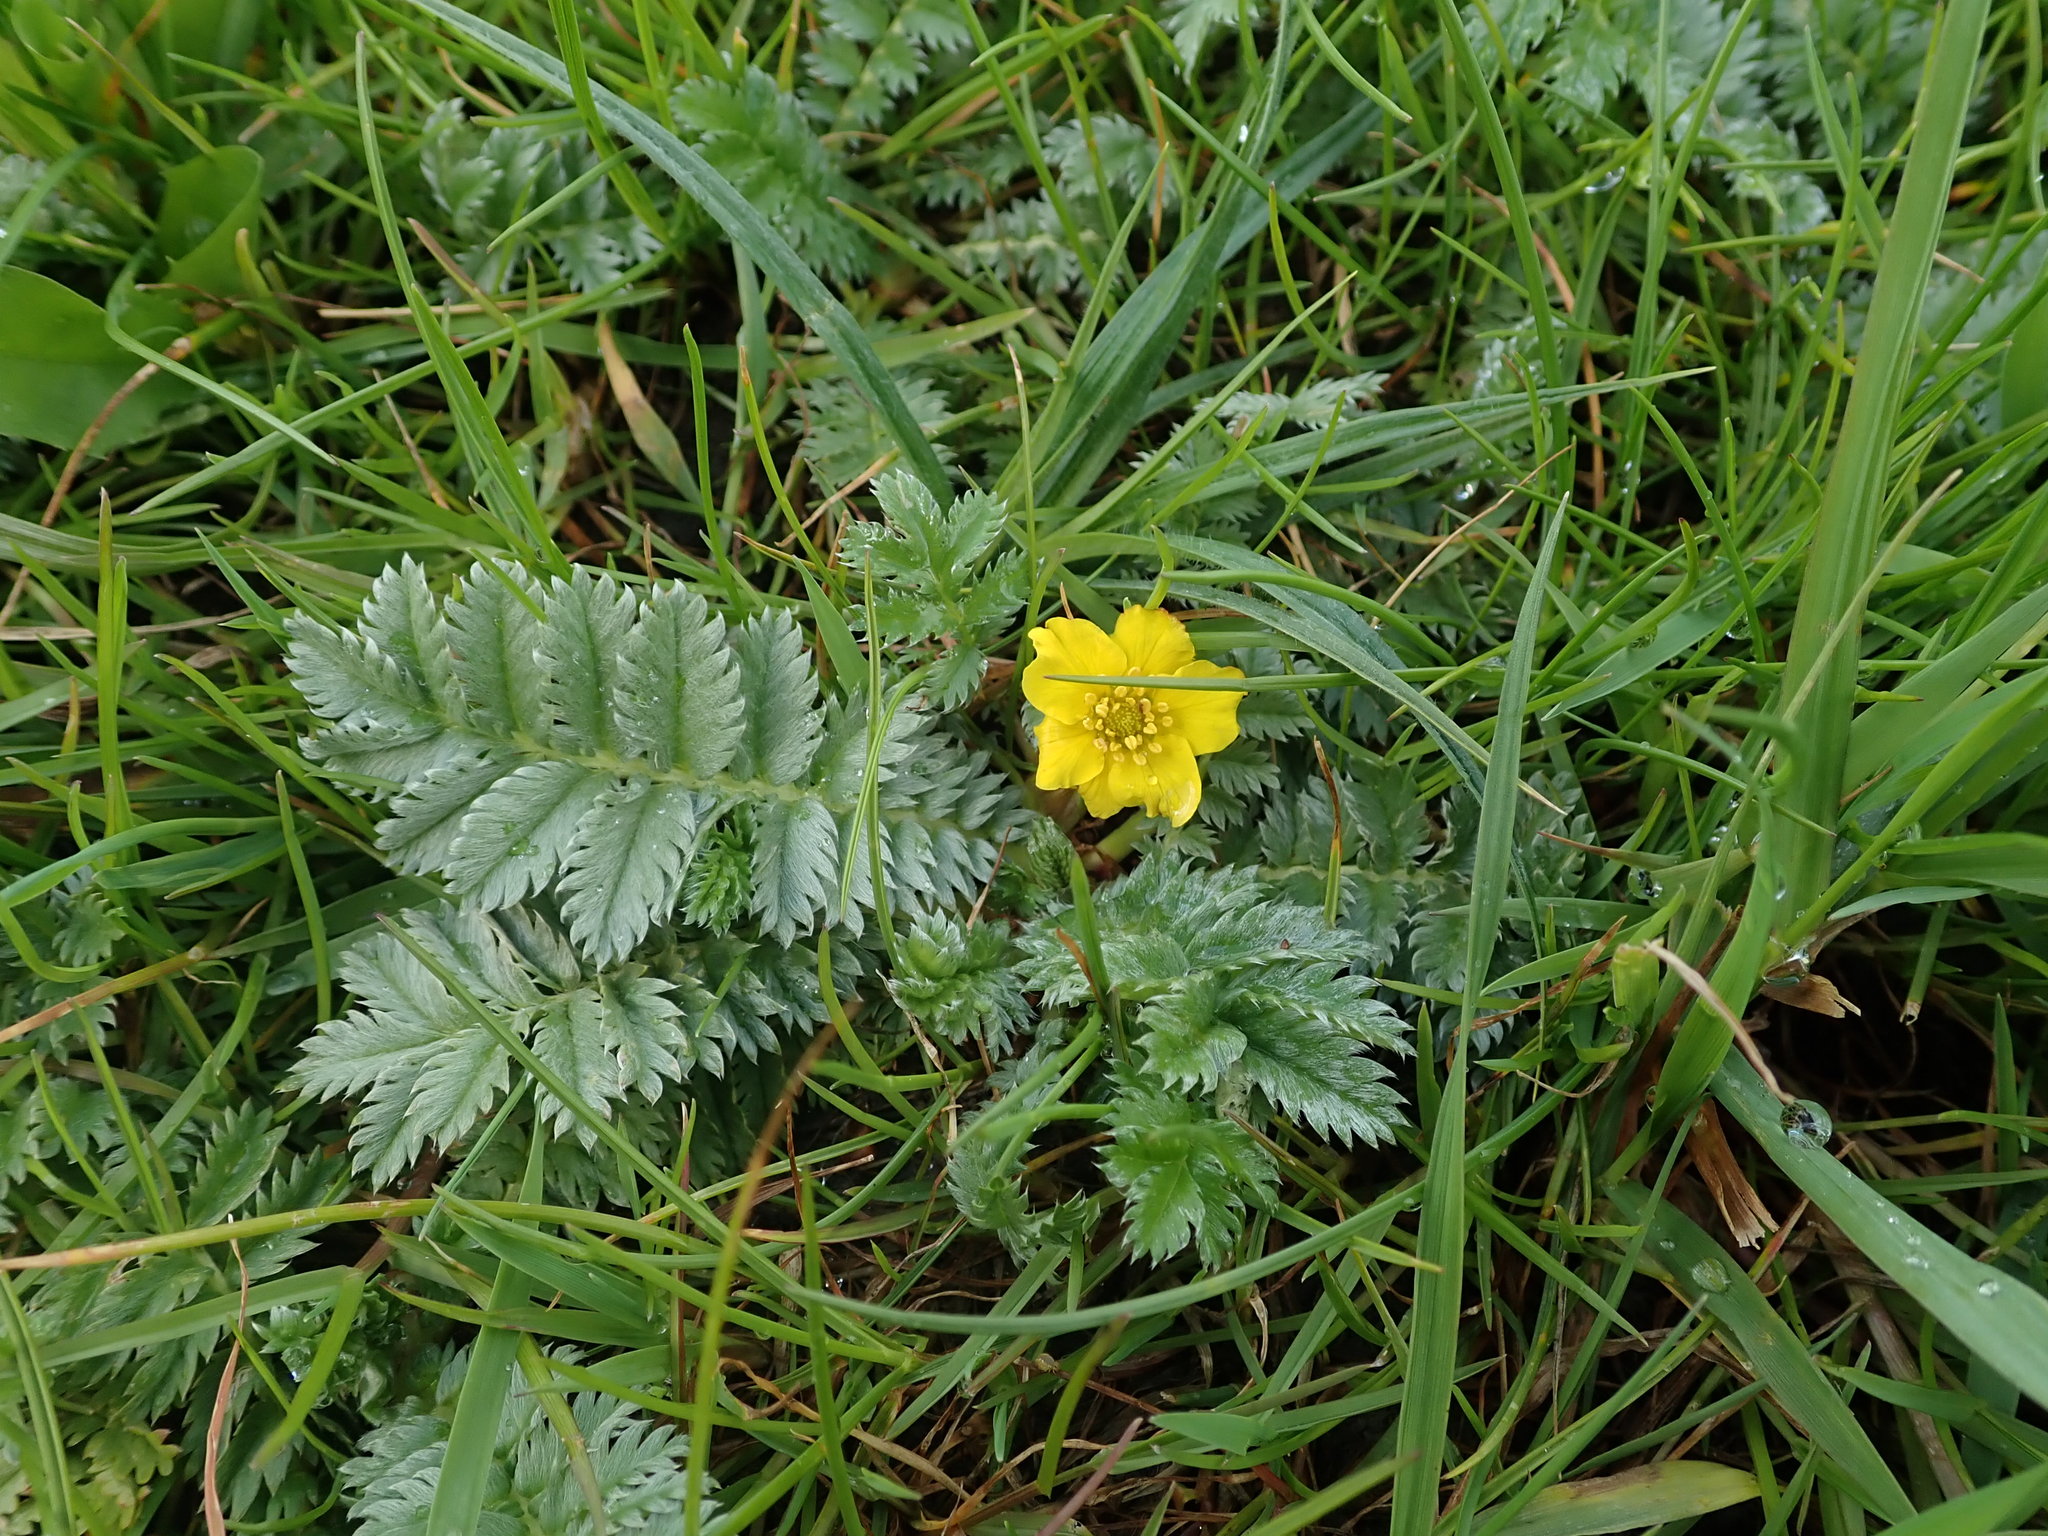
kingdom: Plantae
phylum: Tracheophyta
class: Magnoliopsida
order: Rosales
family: Rosaceae
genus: Argentina
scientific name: Argentina anserina
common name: Common silverweed
